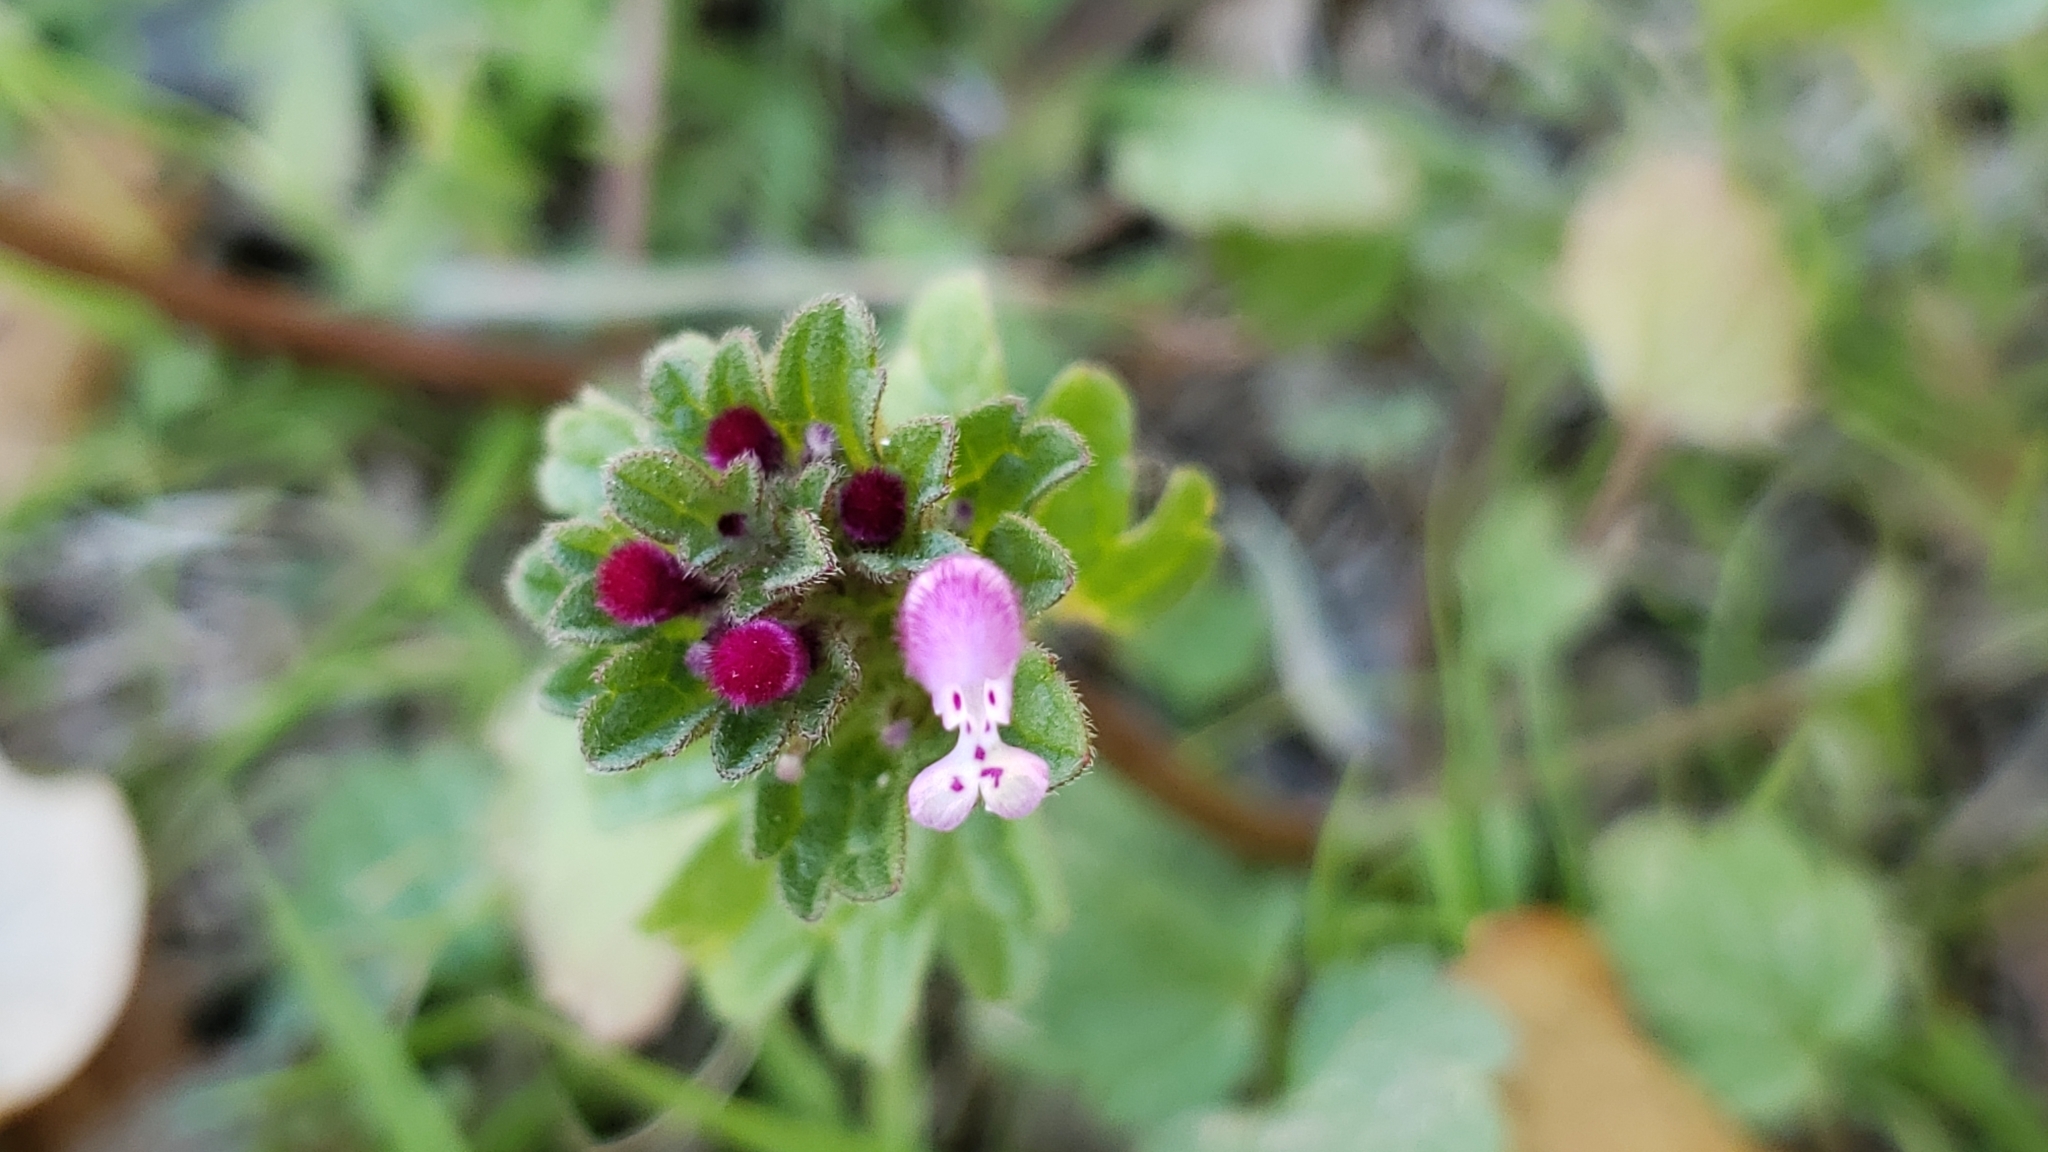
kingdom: Plantae
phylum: Tracheophyta
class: Magnoliopsida
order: Lamiales
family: Lamiaceae
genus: Lamium
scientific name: Lamium amplexicaule
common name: Henbit dead-nettle
